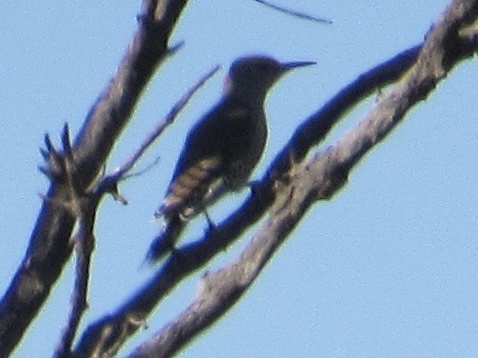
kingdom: Animalia
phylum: Chordata
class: Aves
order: Piciformes
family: Picidae
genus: Colaptes
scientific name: Colaptes auratus
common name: Northern flicker
